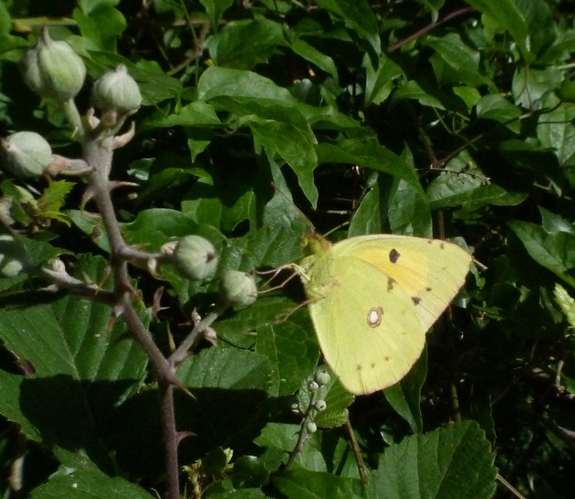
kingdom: Animalia
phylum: Arthropoda
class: Insecta
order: Lepidoptera
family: Pieridae
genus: Colias
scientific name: Colias croceus
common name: Clouded yellow
